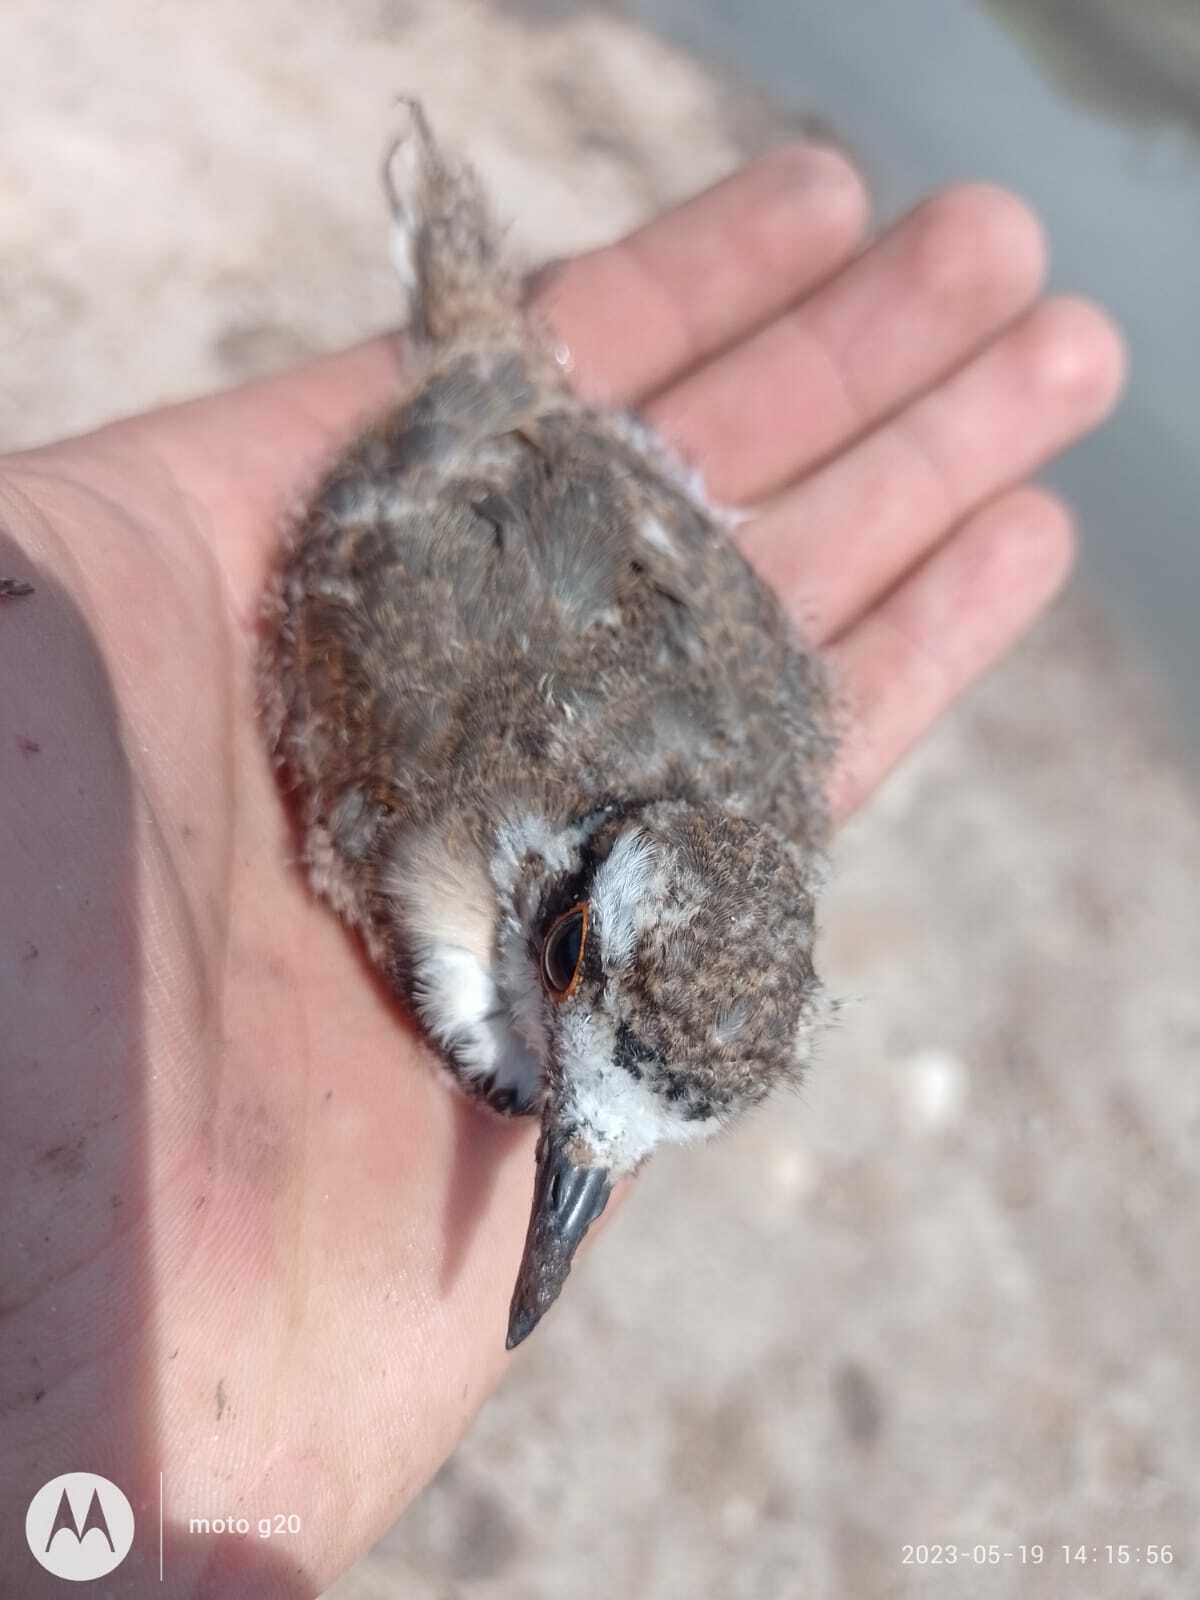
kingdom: Animalia
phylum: Chordata
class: Aves
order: Charadriiformes
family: Charadriidae
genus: Charadrius
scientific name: Charadrius vociferus
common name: Killdeer
